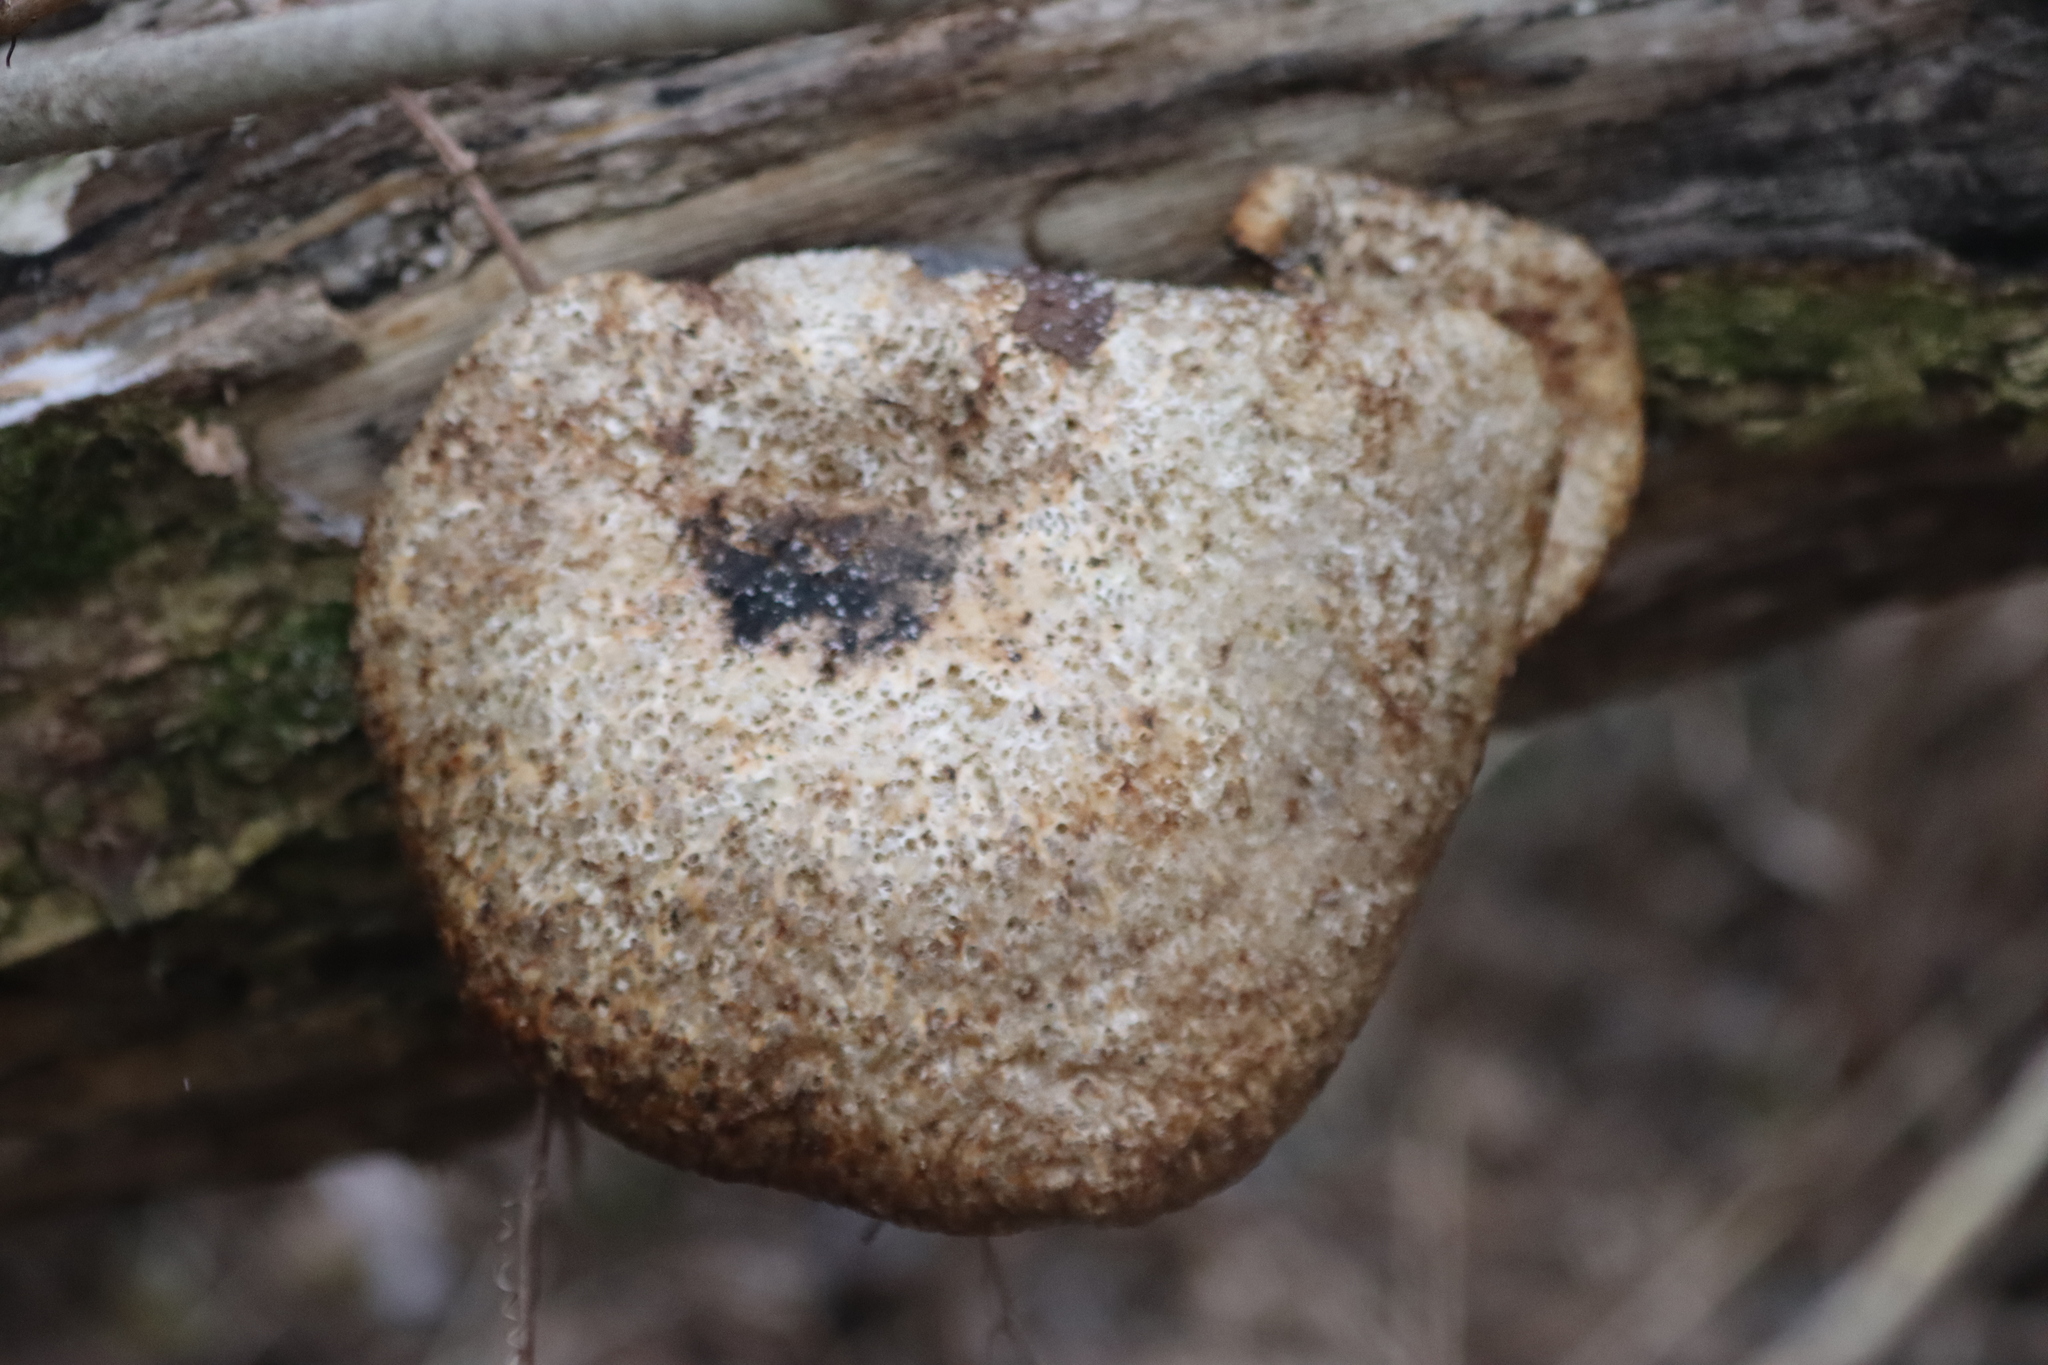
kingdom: Fungi
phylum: Basidiomycota
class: Agaricomycetes
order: Polyporales
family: Polyporaceae
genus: Cerioporus
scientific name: Cerioporus squamosus
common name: Dryad's saddle
